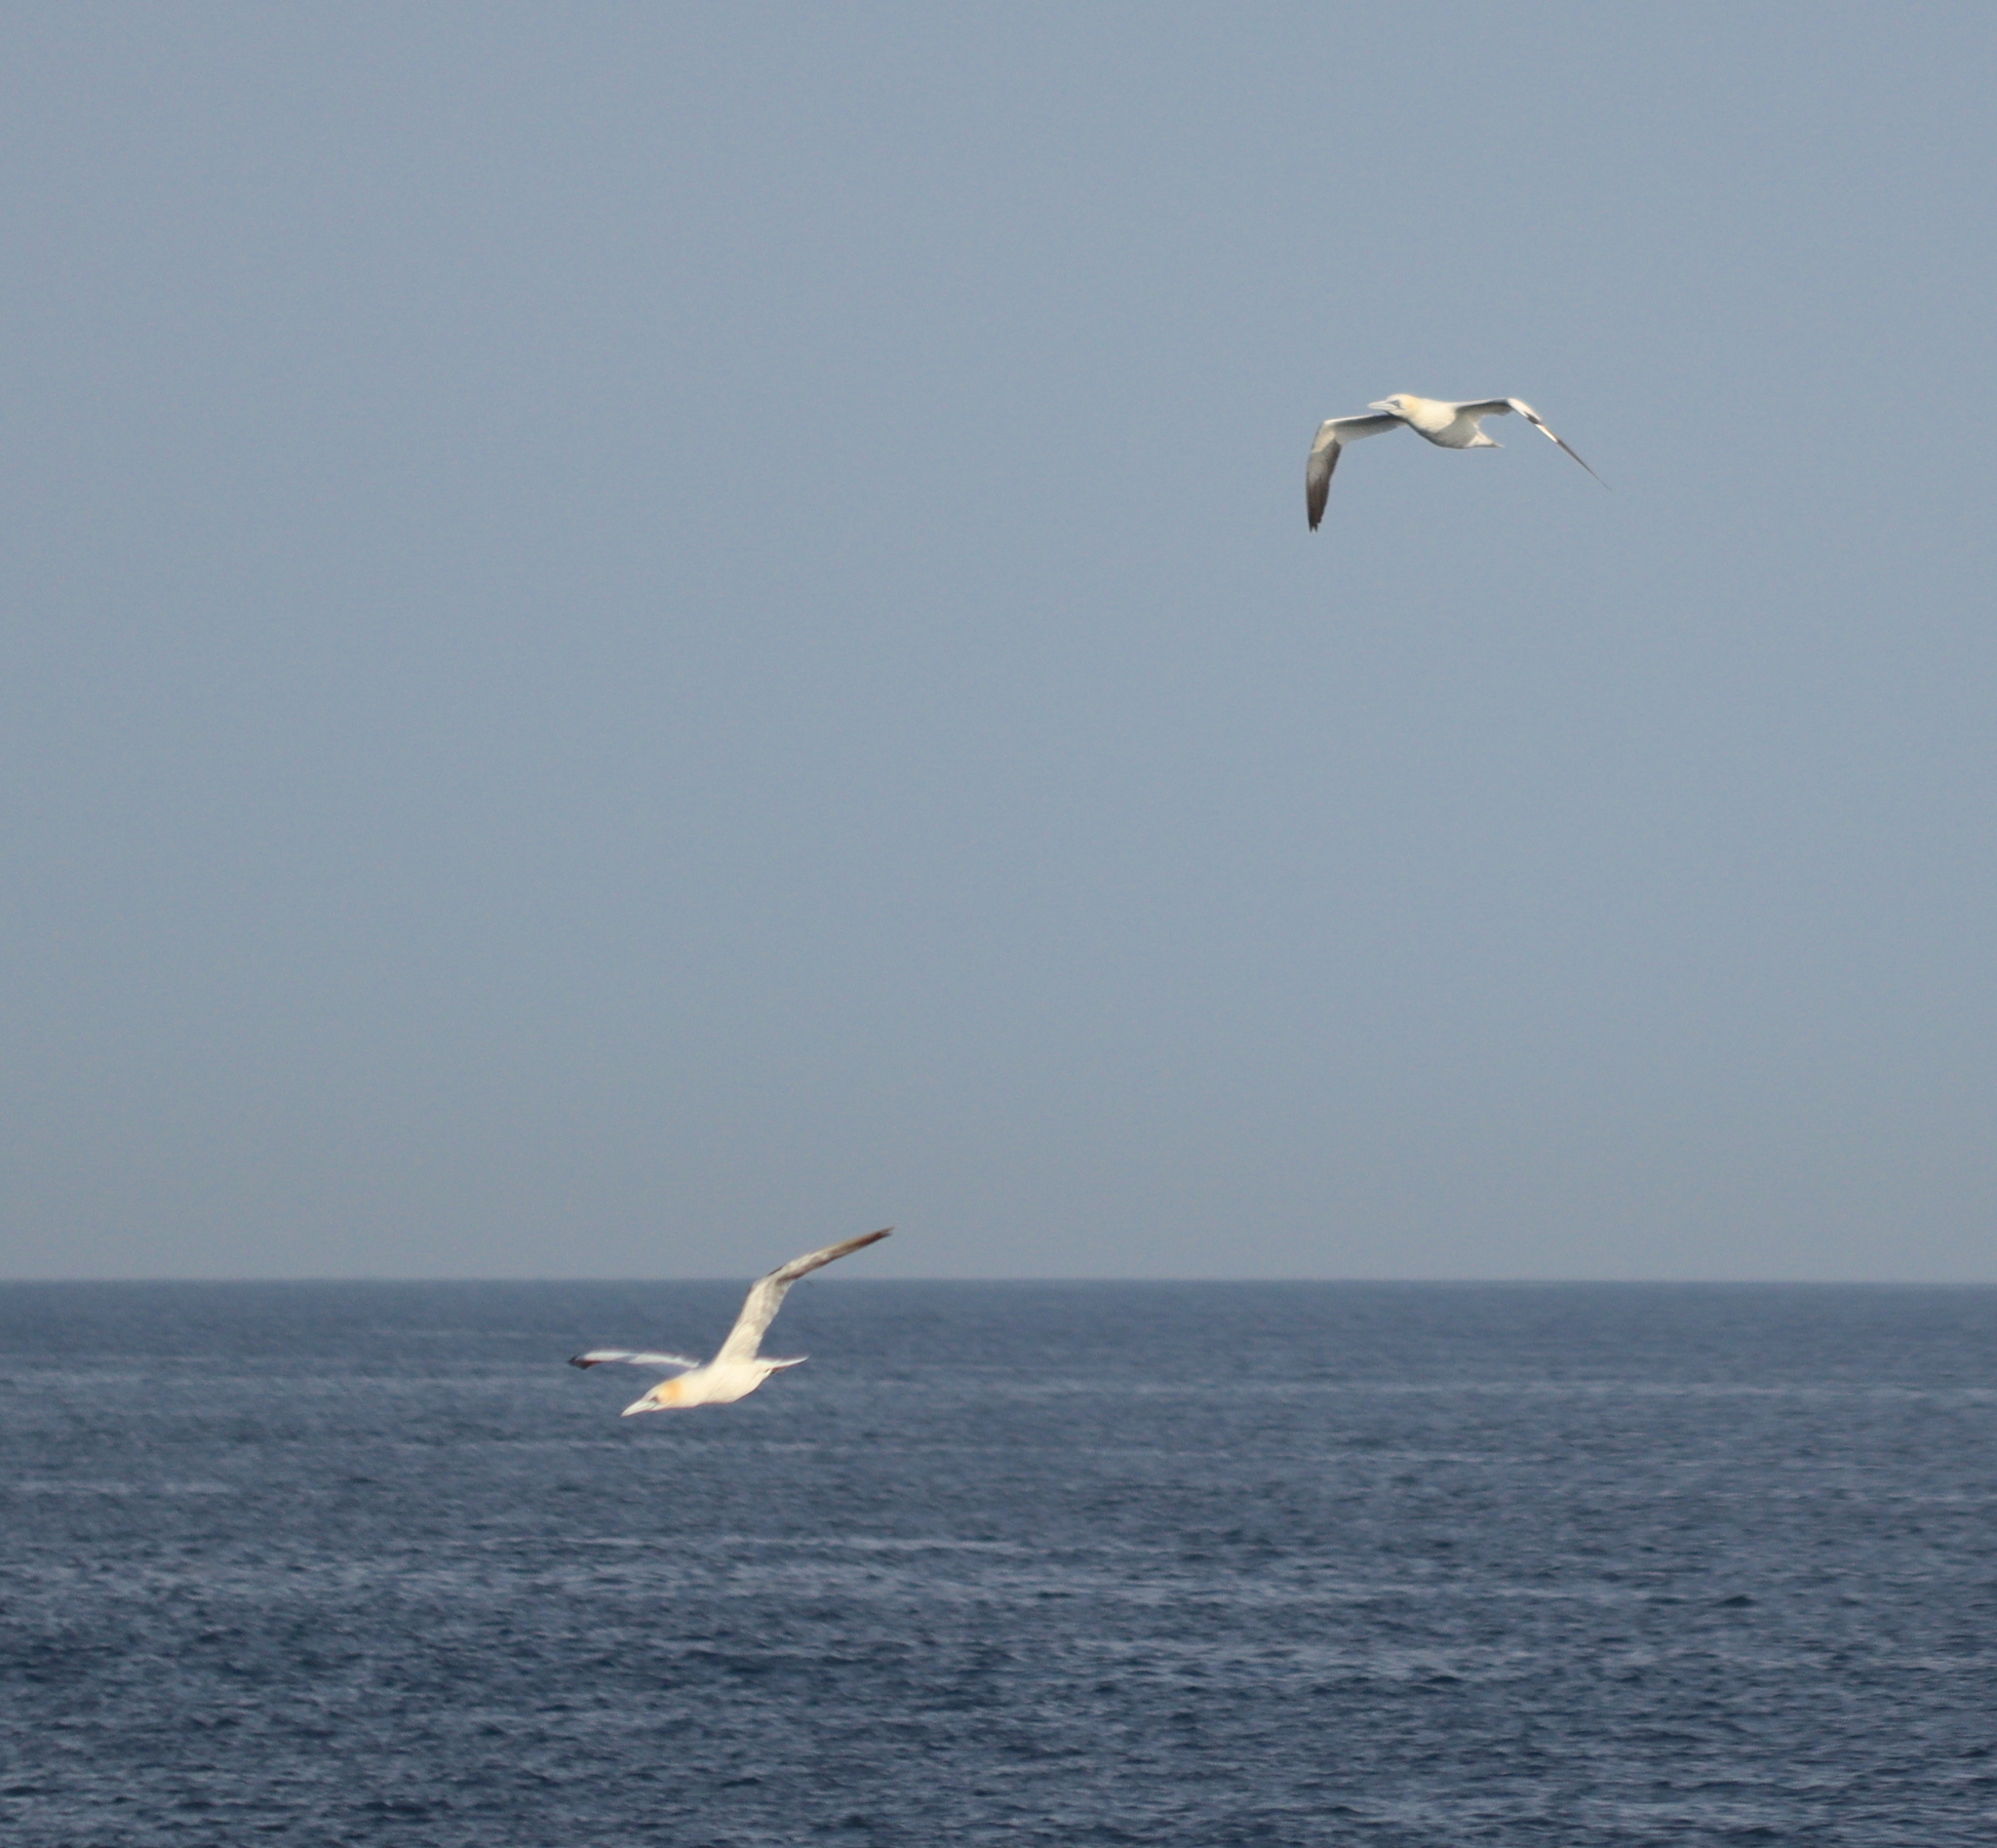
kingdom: Animalia
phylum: Chordata
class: Aves
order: Suliformes
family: Sulidae
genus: Morus
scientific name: Morus bassanus
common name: Northern gannet
